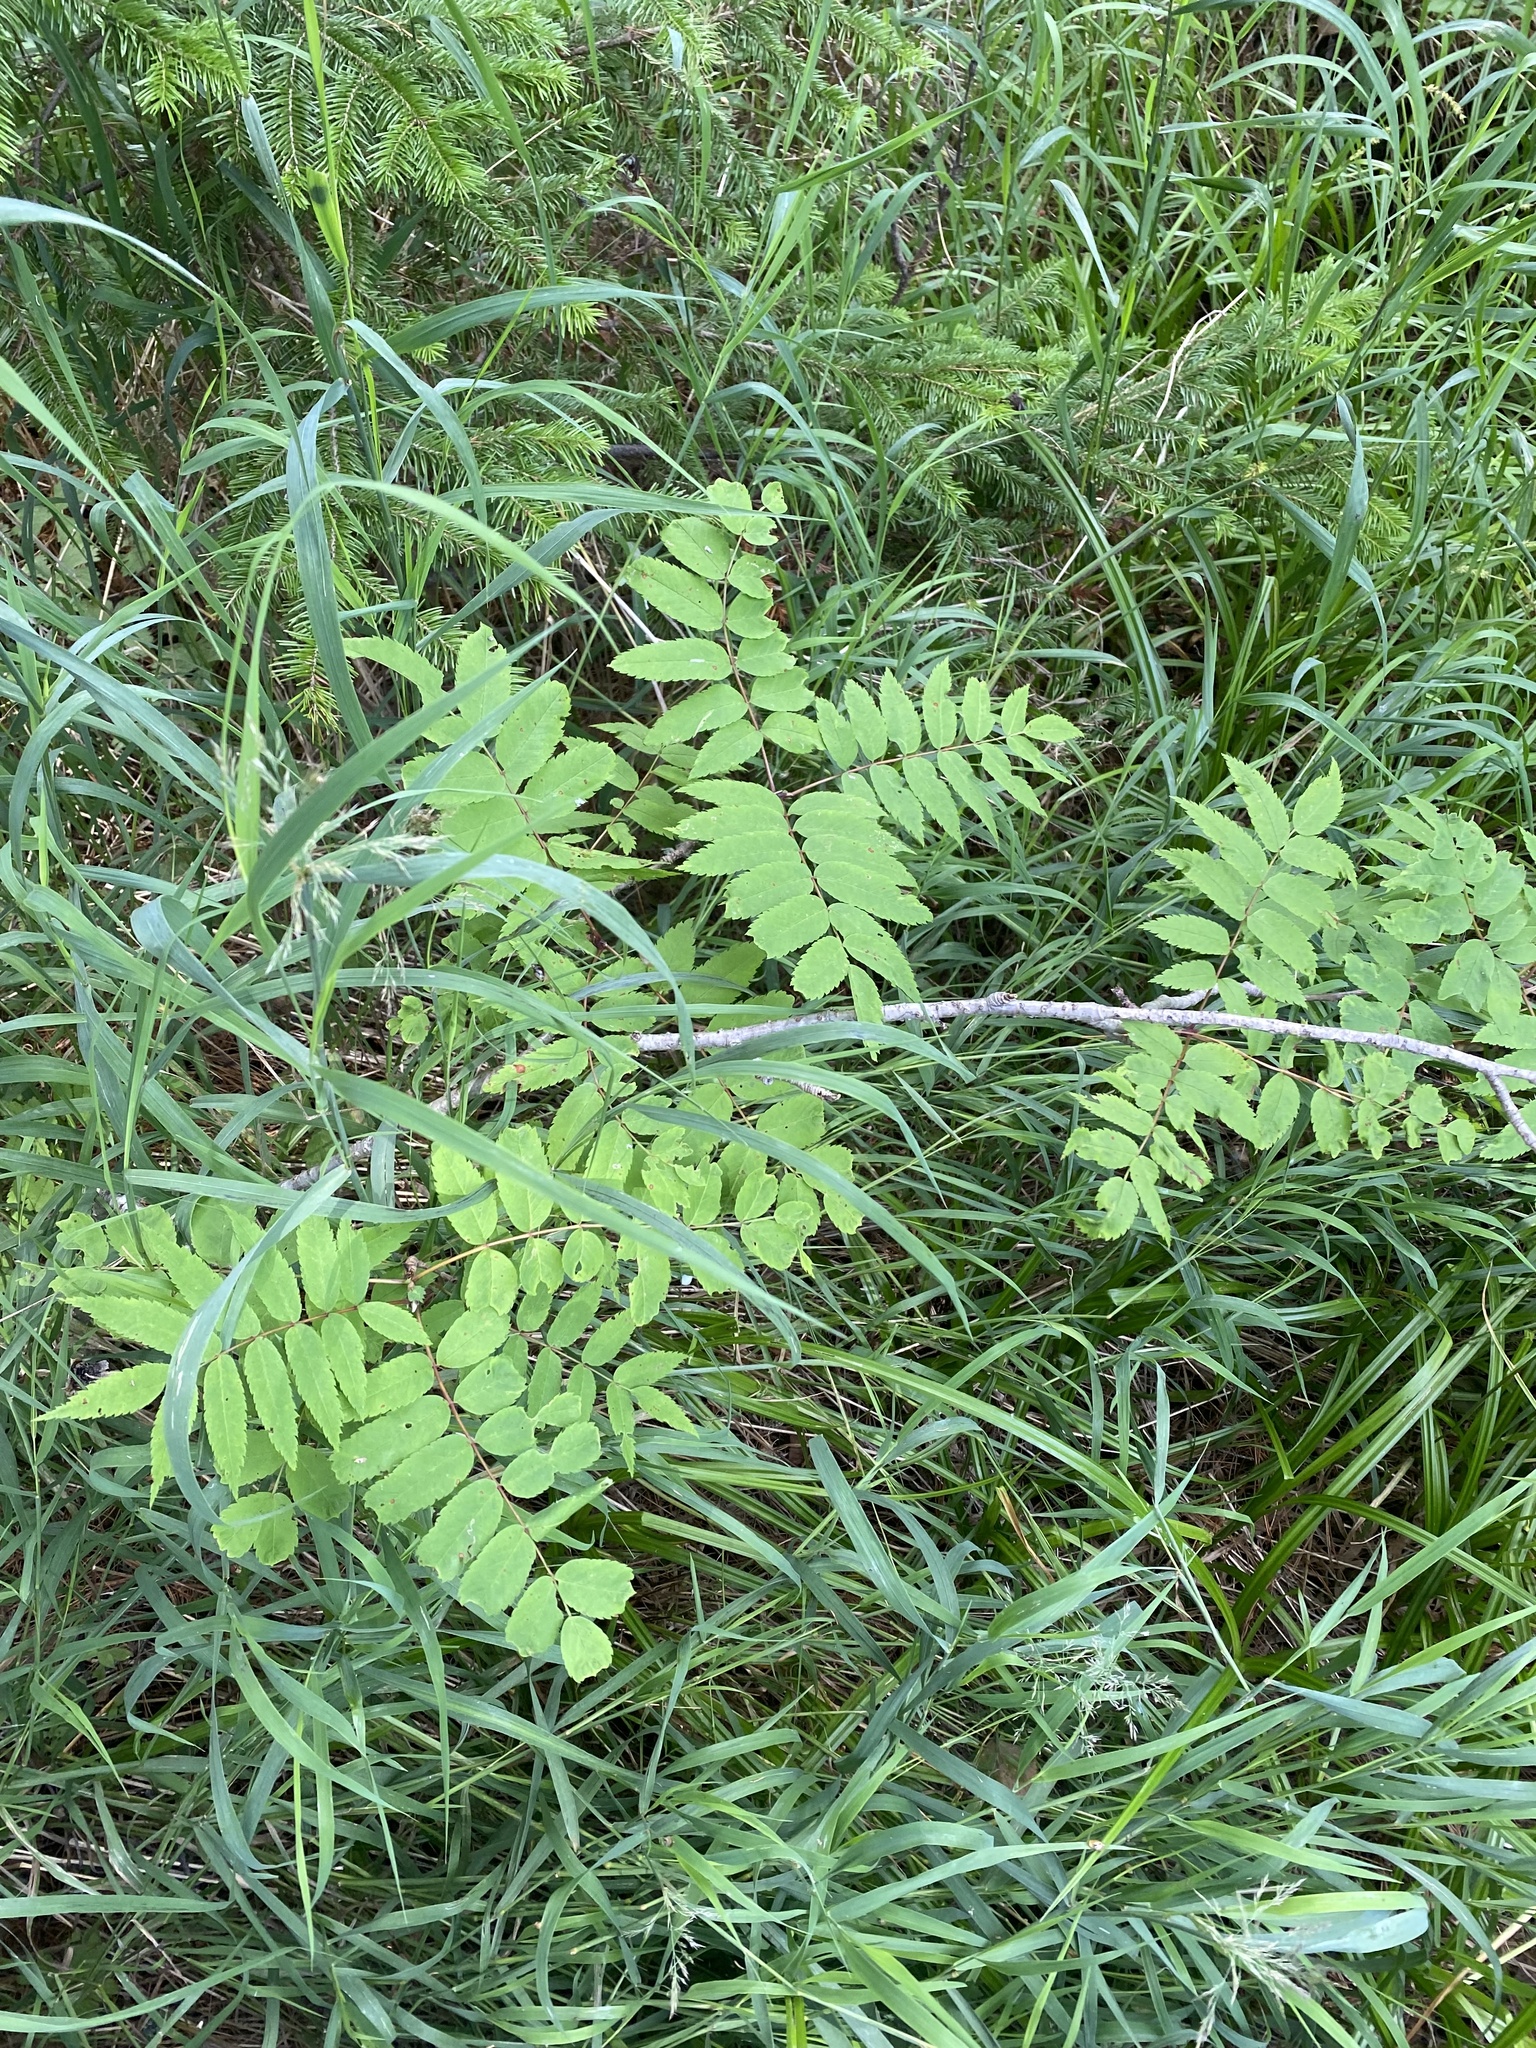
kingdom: Plantae
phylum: Tracheophyta
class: Magnoliopsida
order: Rosales
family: Rosaceae
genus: Sorbus
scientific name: Sorbus aucuparia
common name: Rowan
